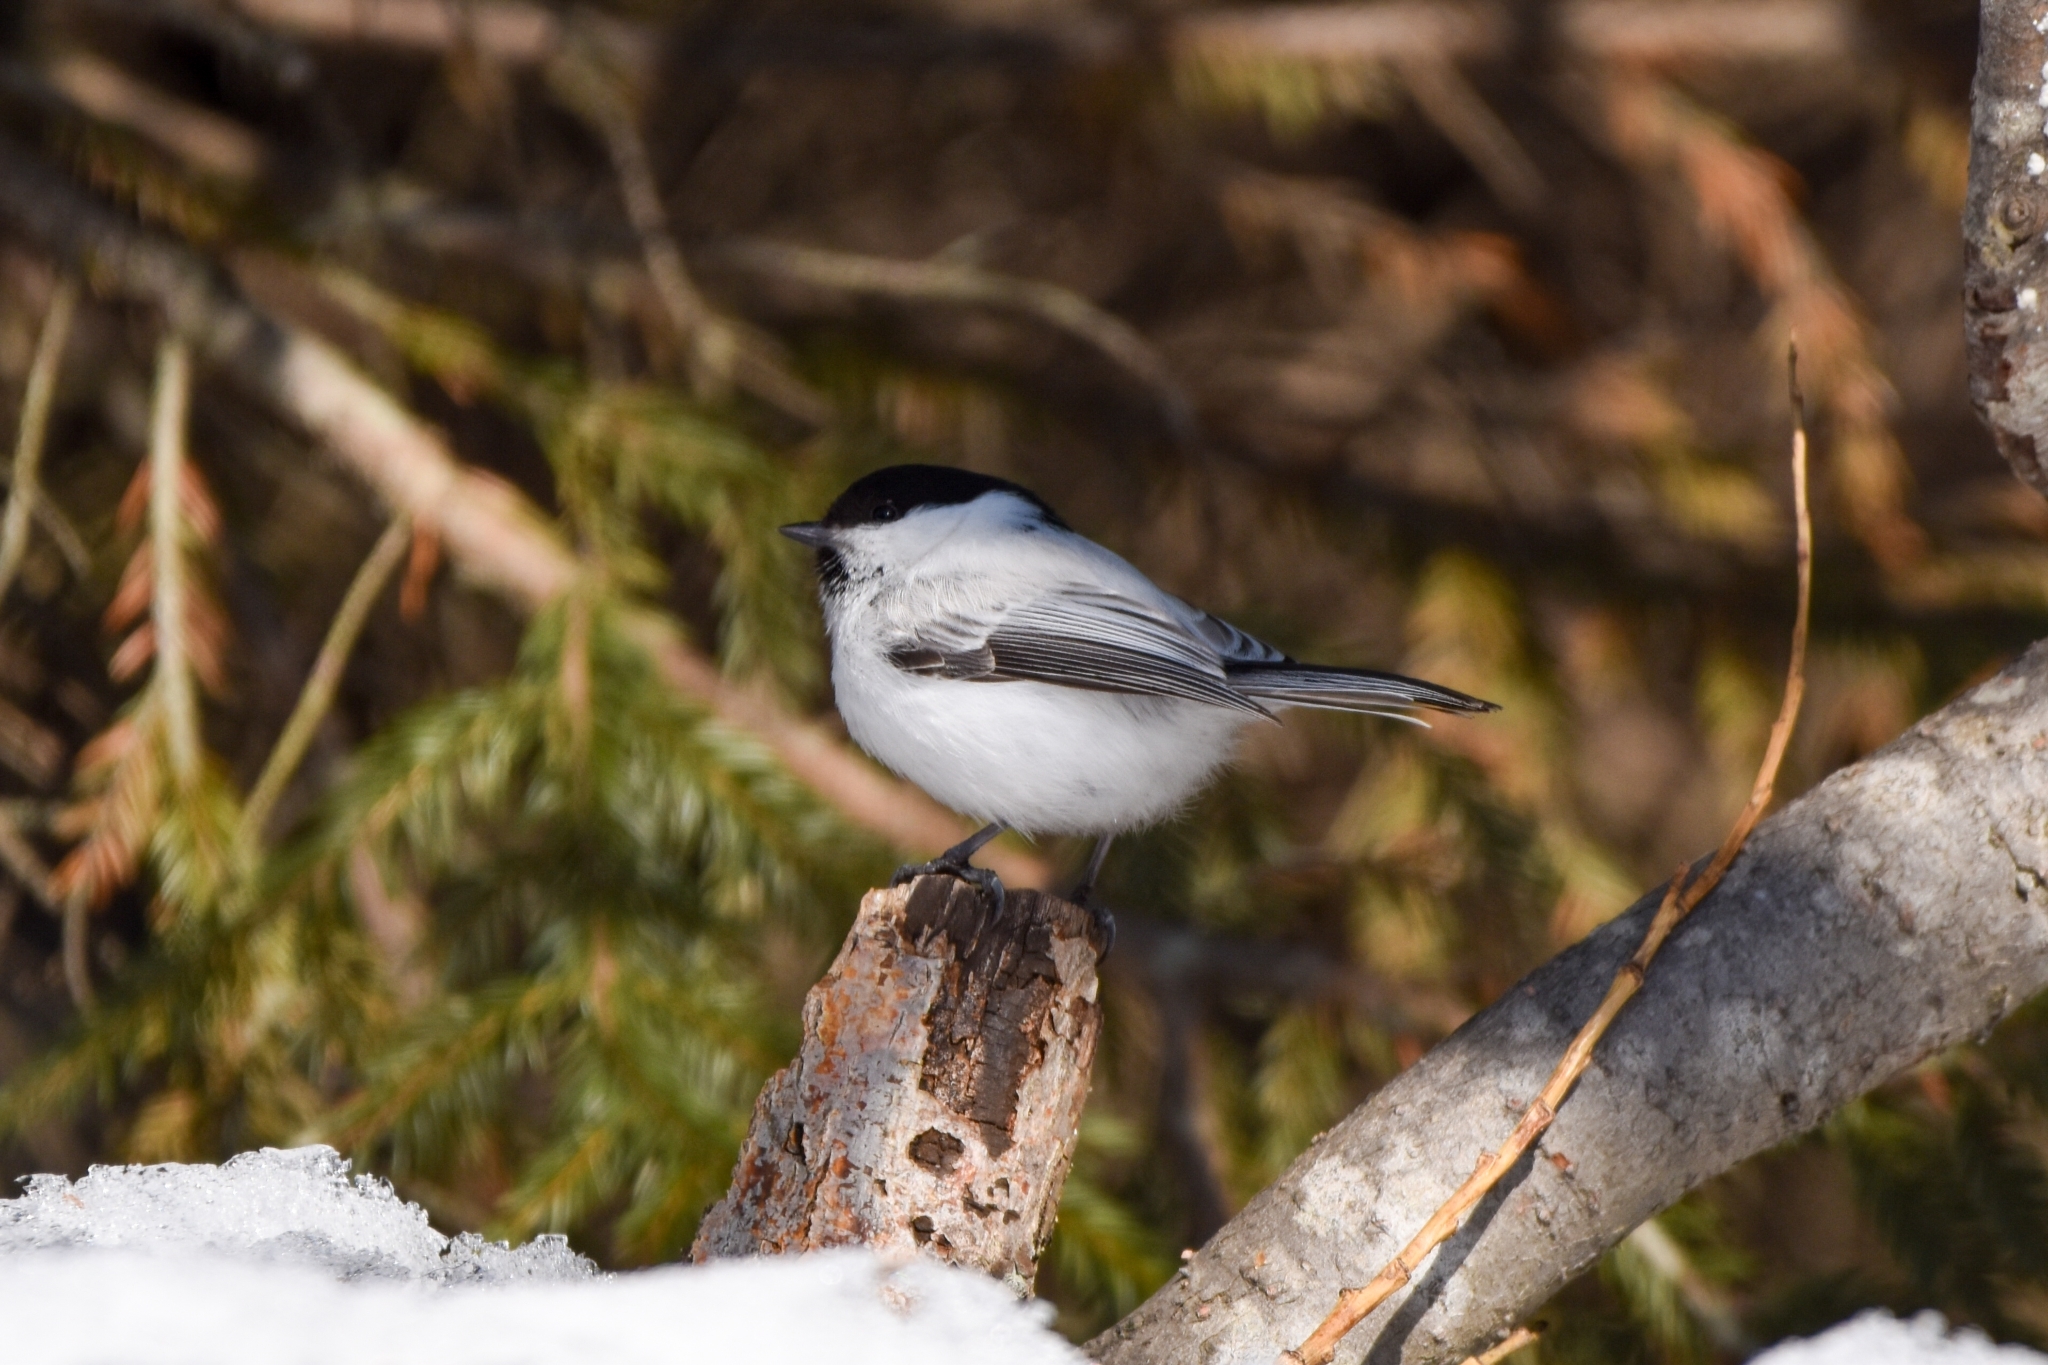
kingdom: Animalia
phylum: Chordata
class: Aves
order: Passeriformes
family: Paridae
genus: Poecile
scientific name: Poecile montanus
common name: Willow tit
